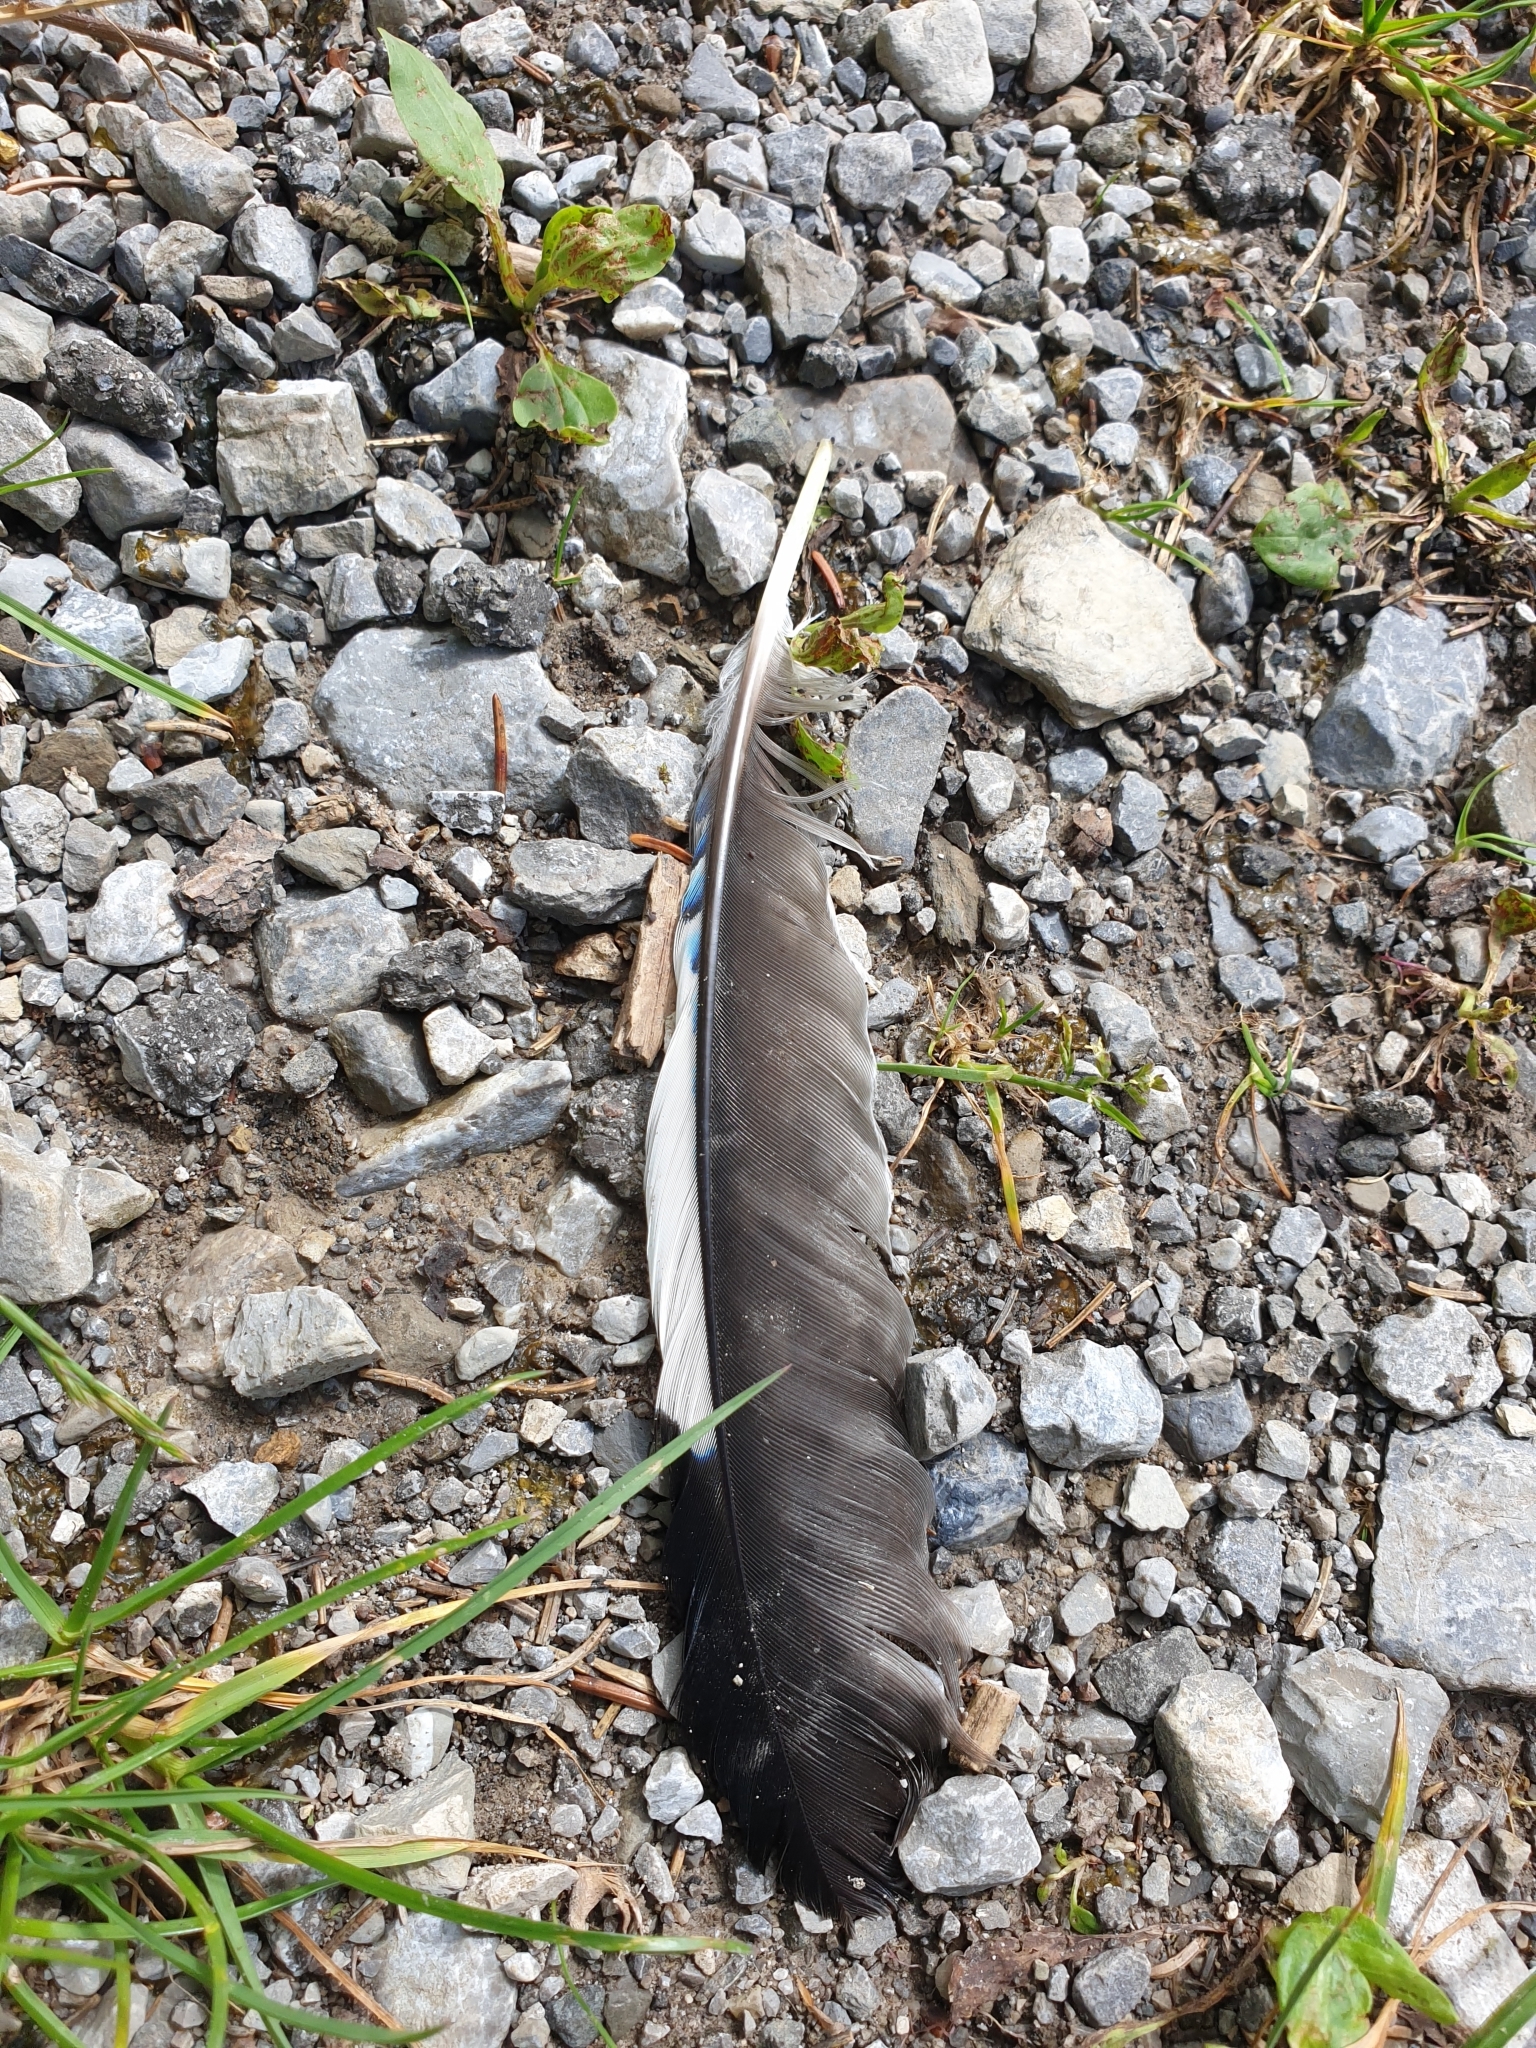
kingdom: Animalia
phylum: Chordata
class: Aves
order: Passeriformes
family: Corvidae
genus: Garrulus
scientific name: Garrulus glandarius
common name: Eurasian jay
